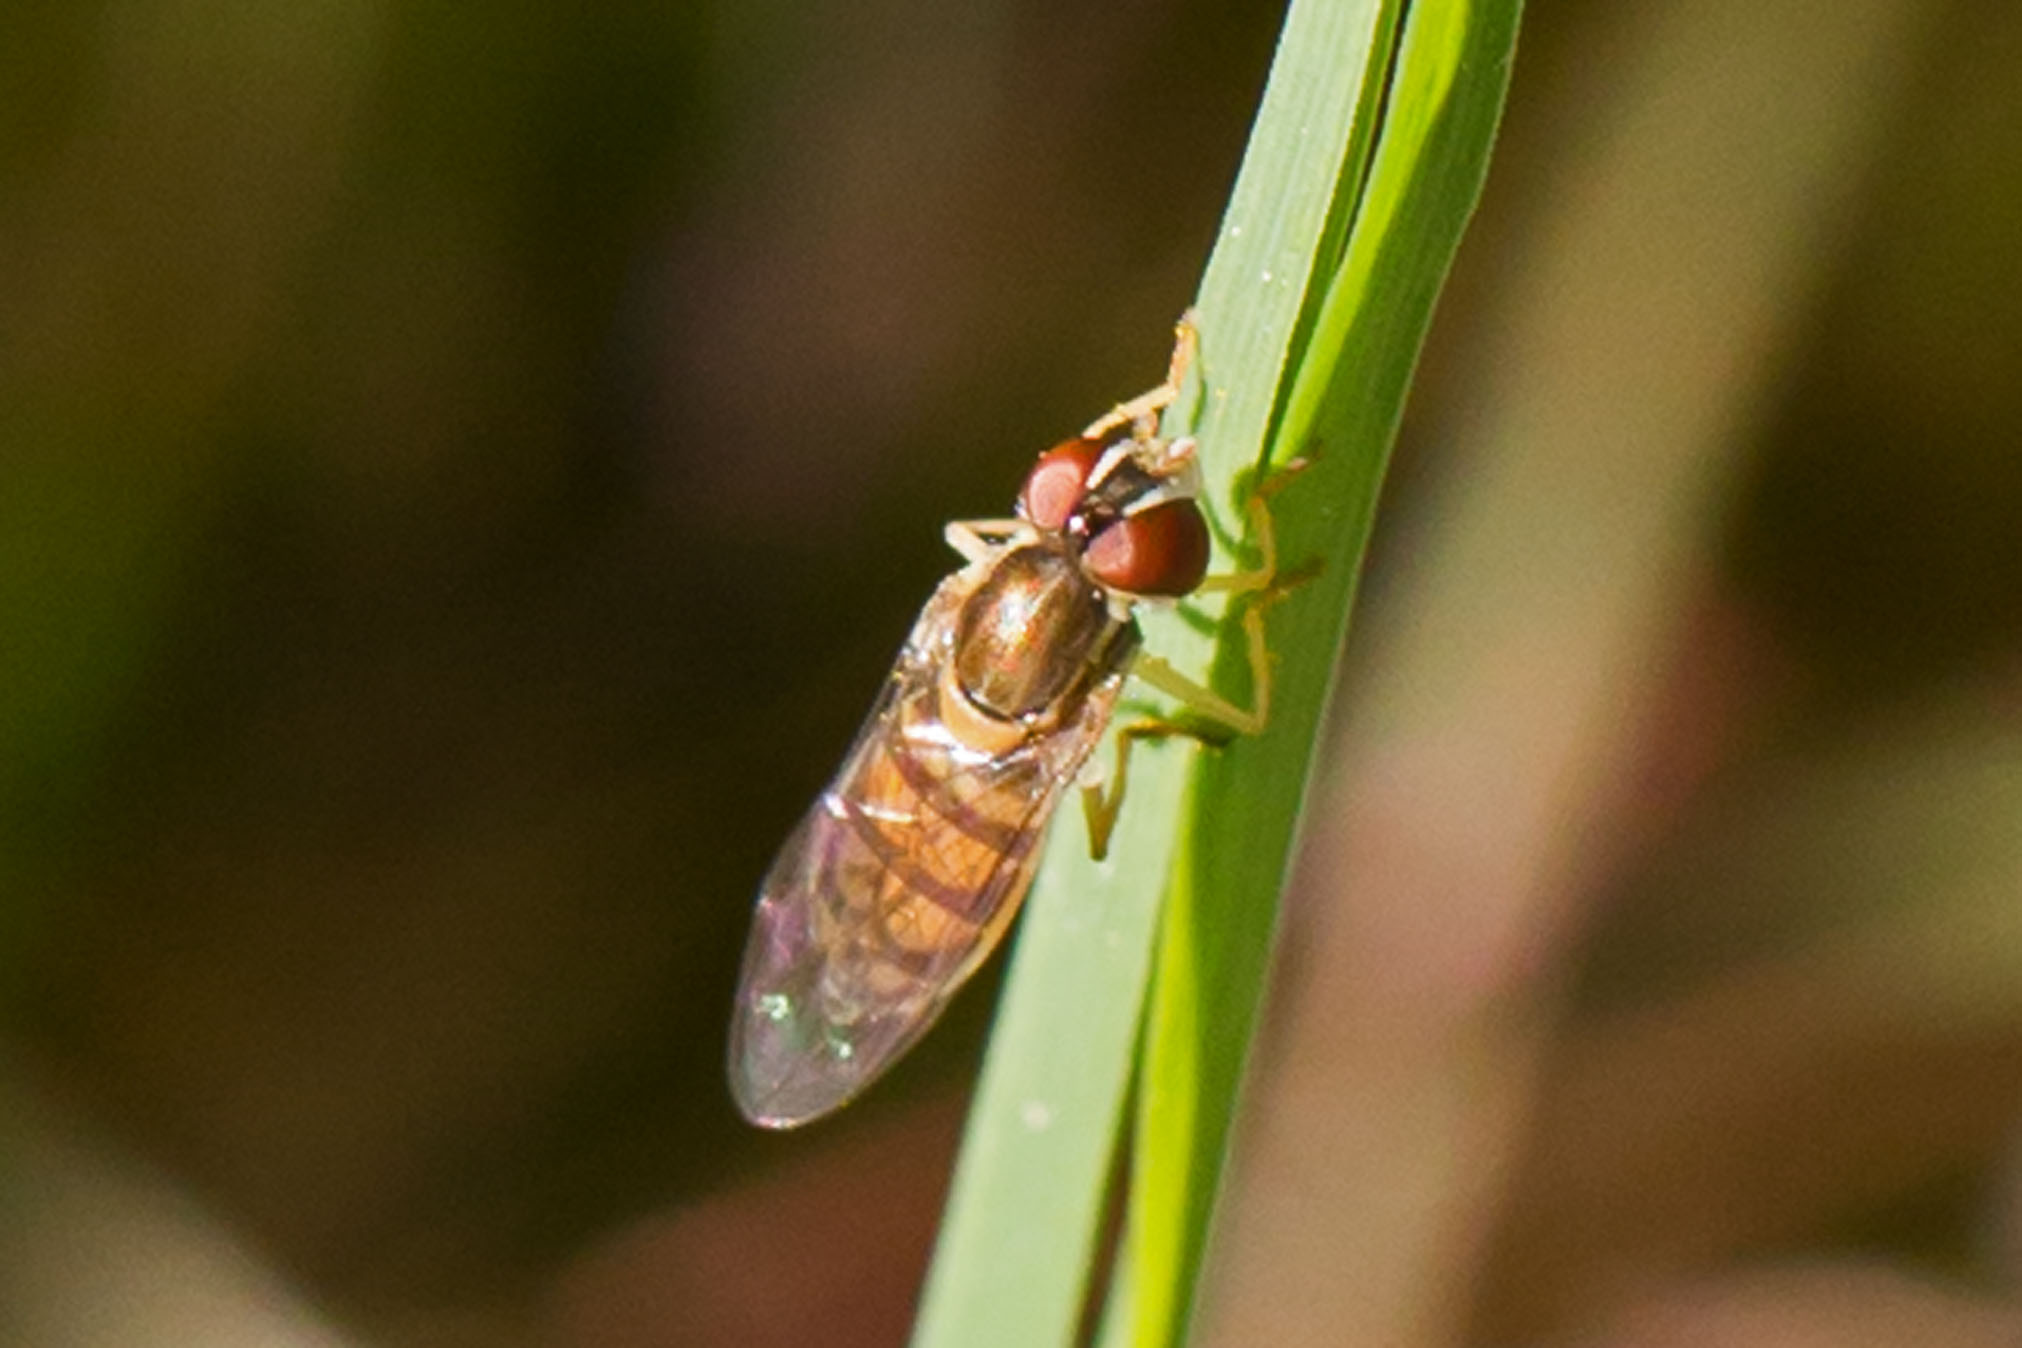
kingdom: Animalia
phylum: Arthropoda
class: Insecta
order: Diptera
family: Syrphidae
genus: Toxomerus
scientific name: Toxomerus marginatus
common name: Syrphid fly
